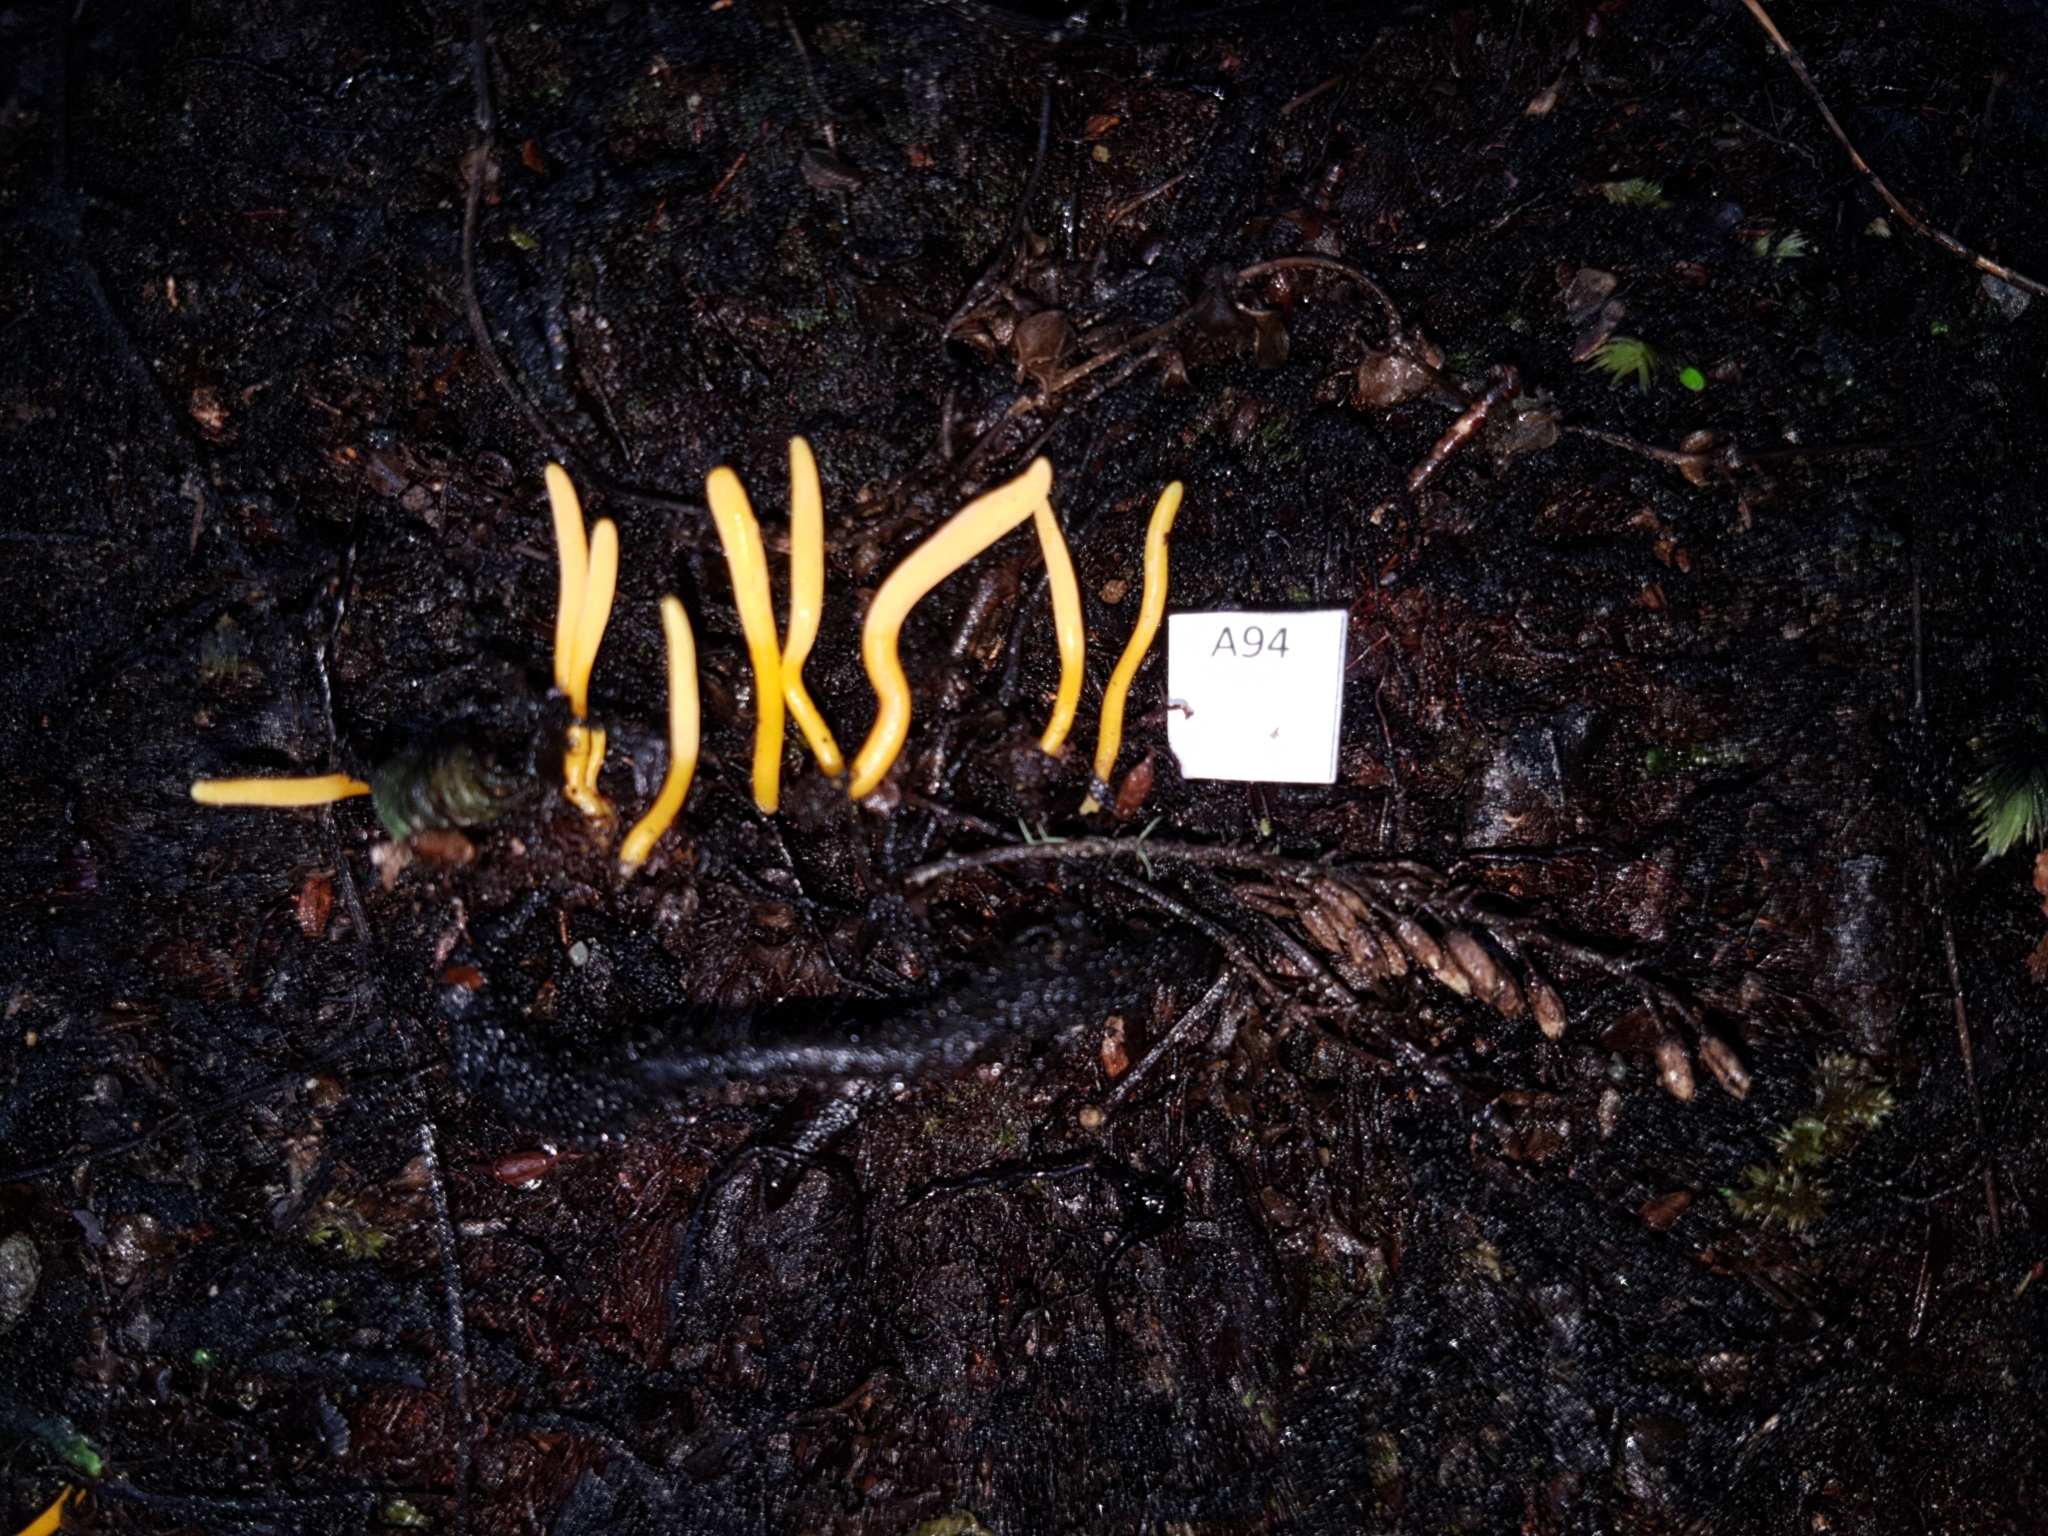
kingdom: Fungi
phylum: Basidiomycota
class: Agaricomycetes
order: Agaricales
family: Clavariaceae
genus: Clavulinopsis
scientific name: Clavulinopsis
